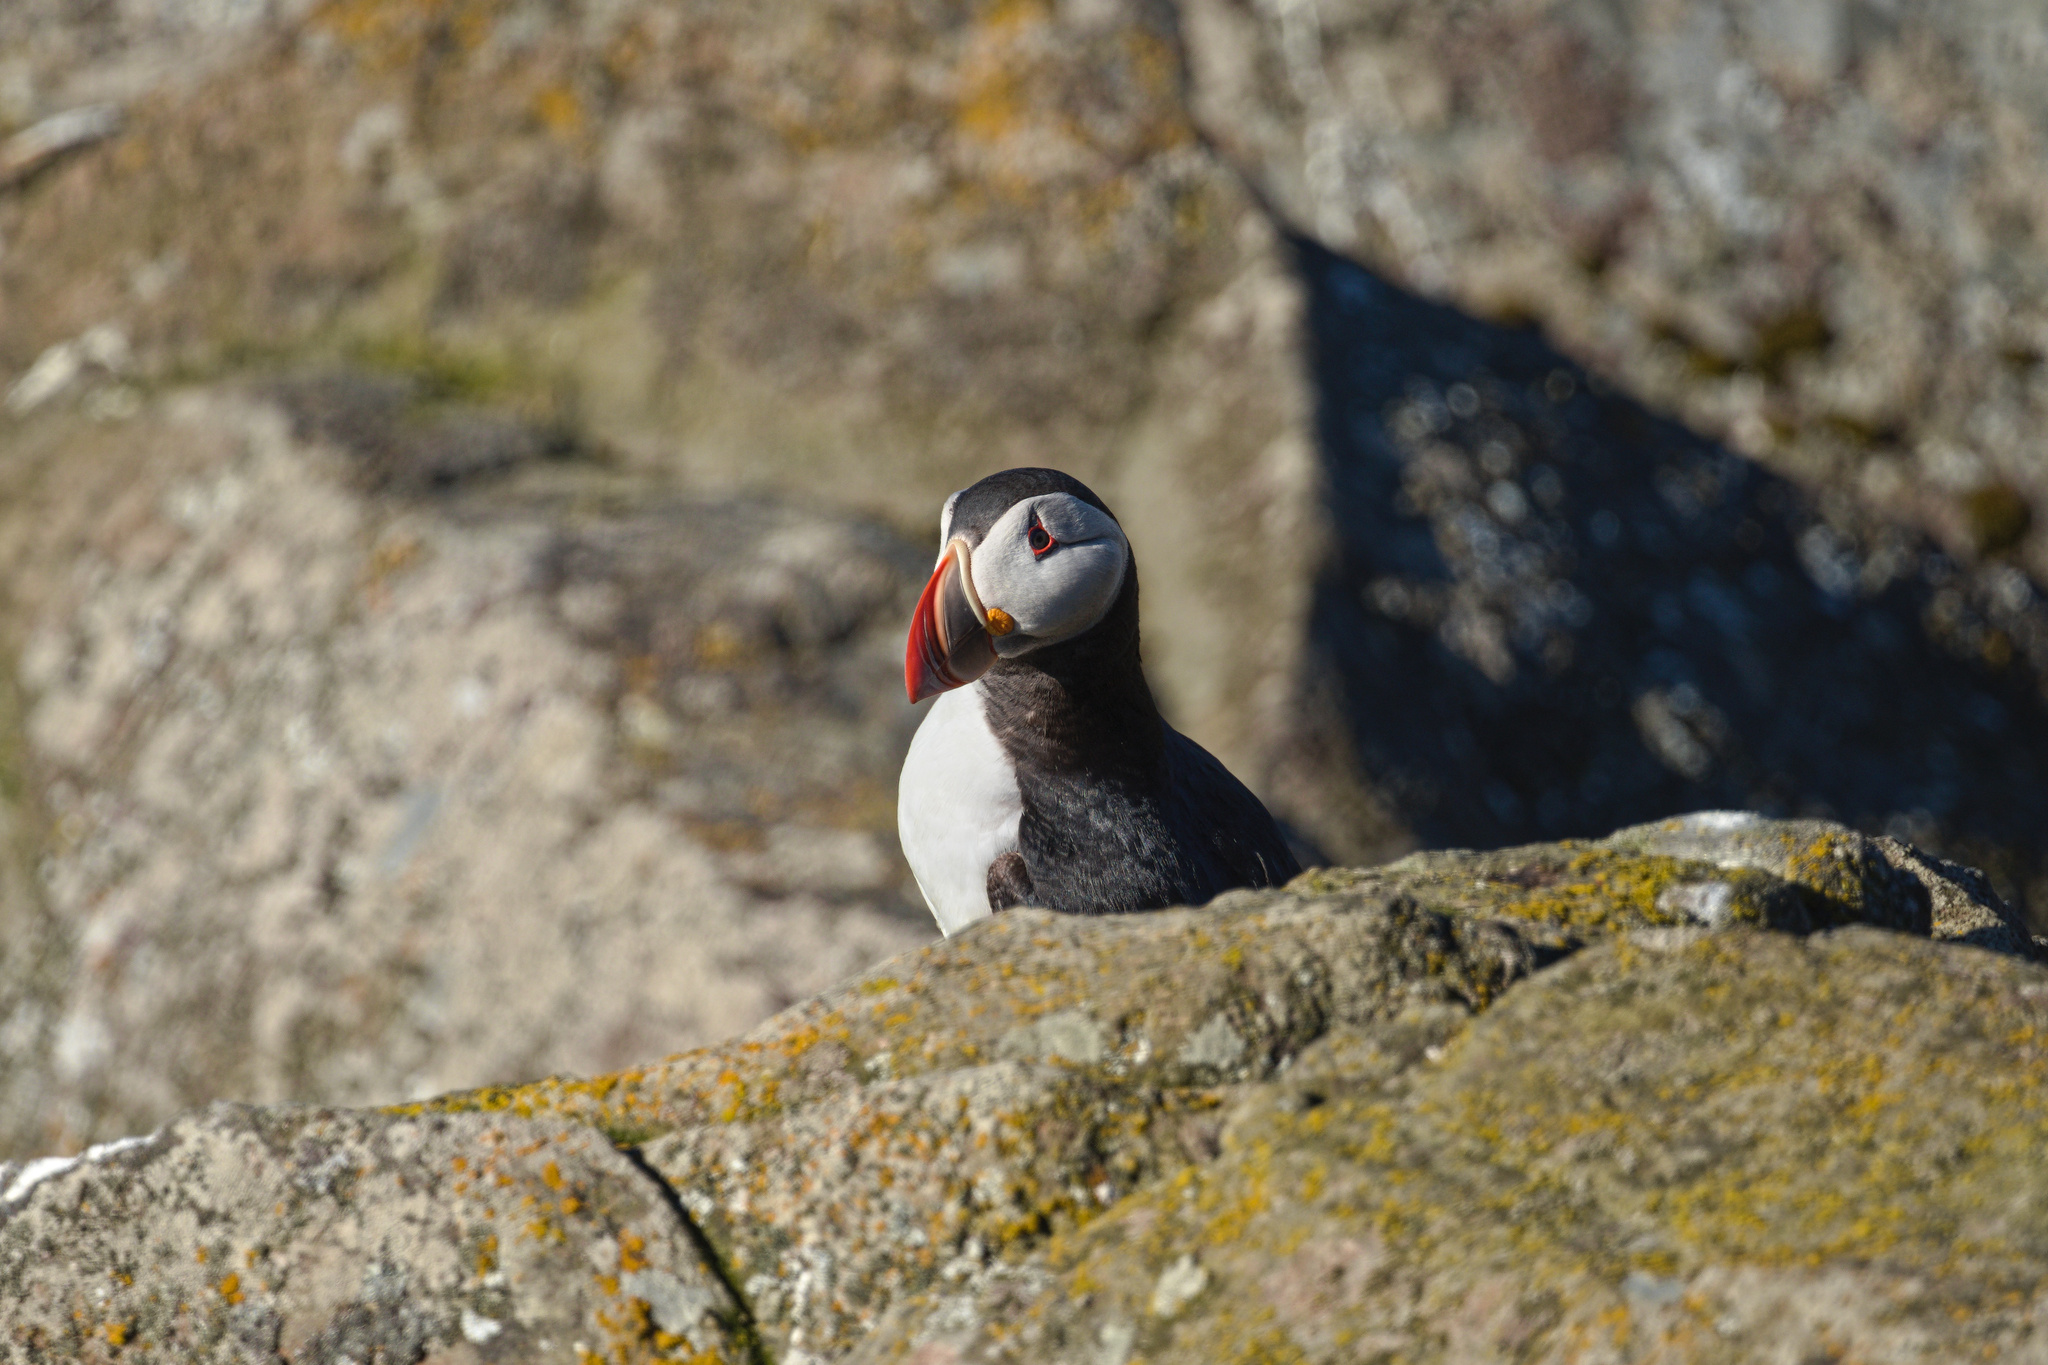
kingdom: Animalia
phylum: Chordata
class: Aves
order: Charadriiformes
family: Alcidae
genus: Fratercula
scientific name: Fratercula arctica
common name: Atlantic puffin
